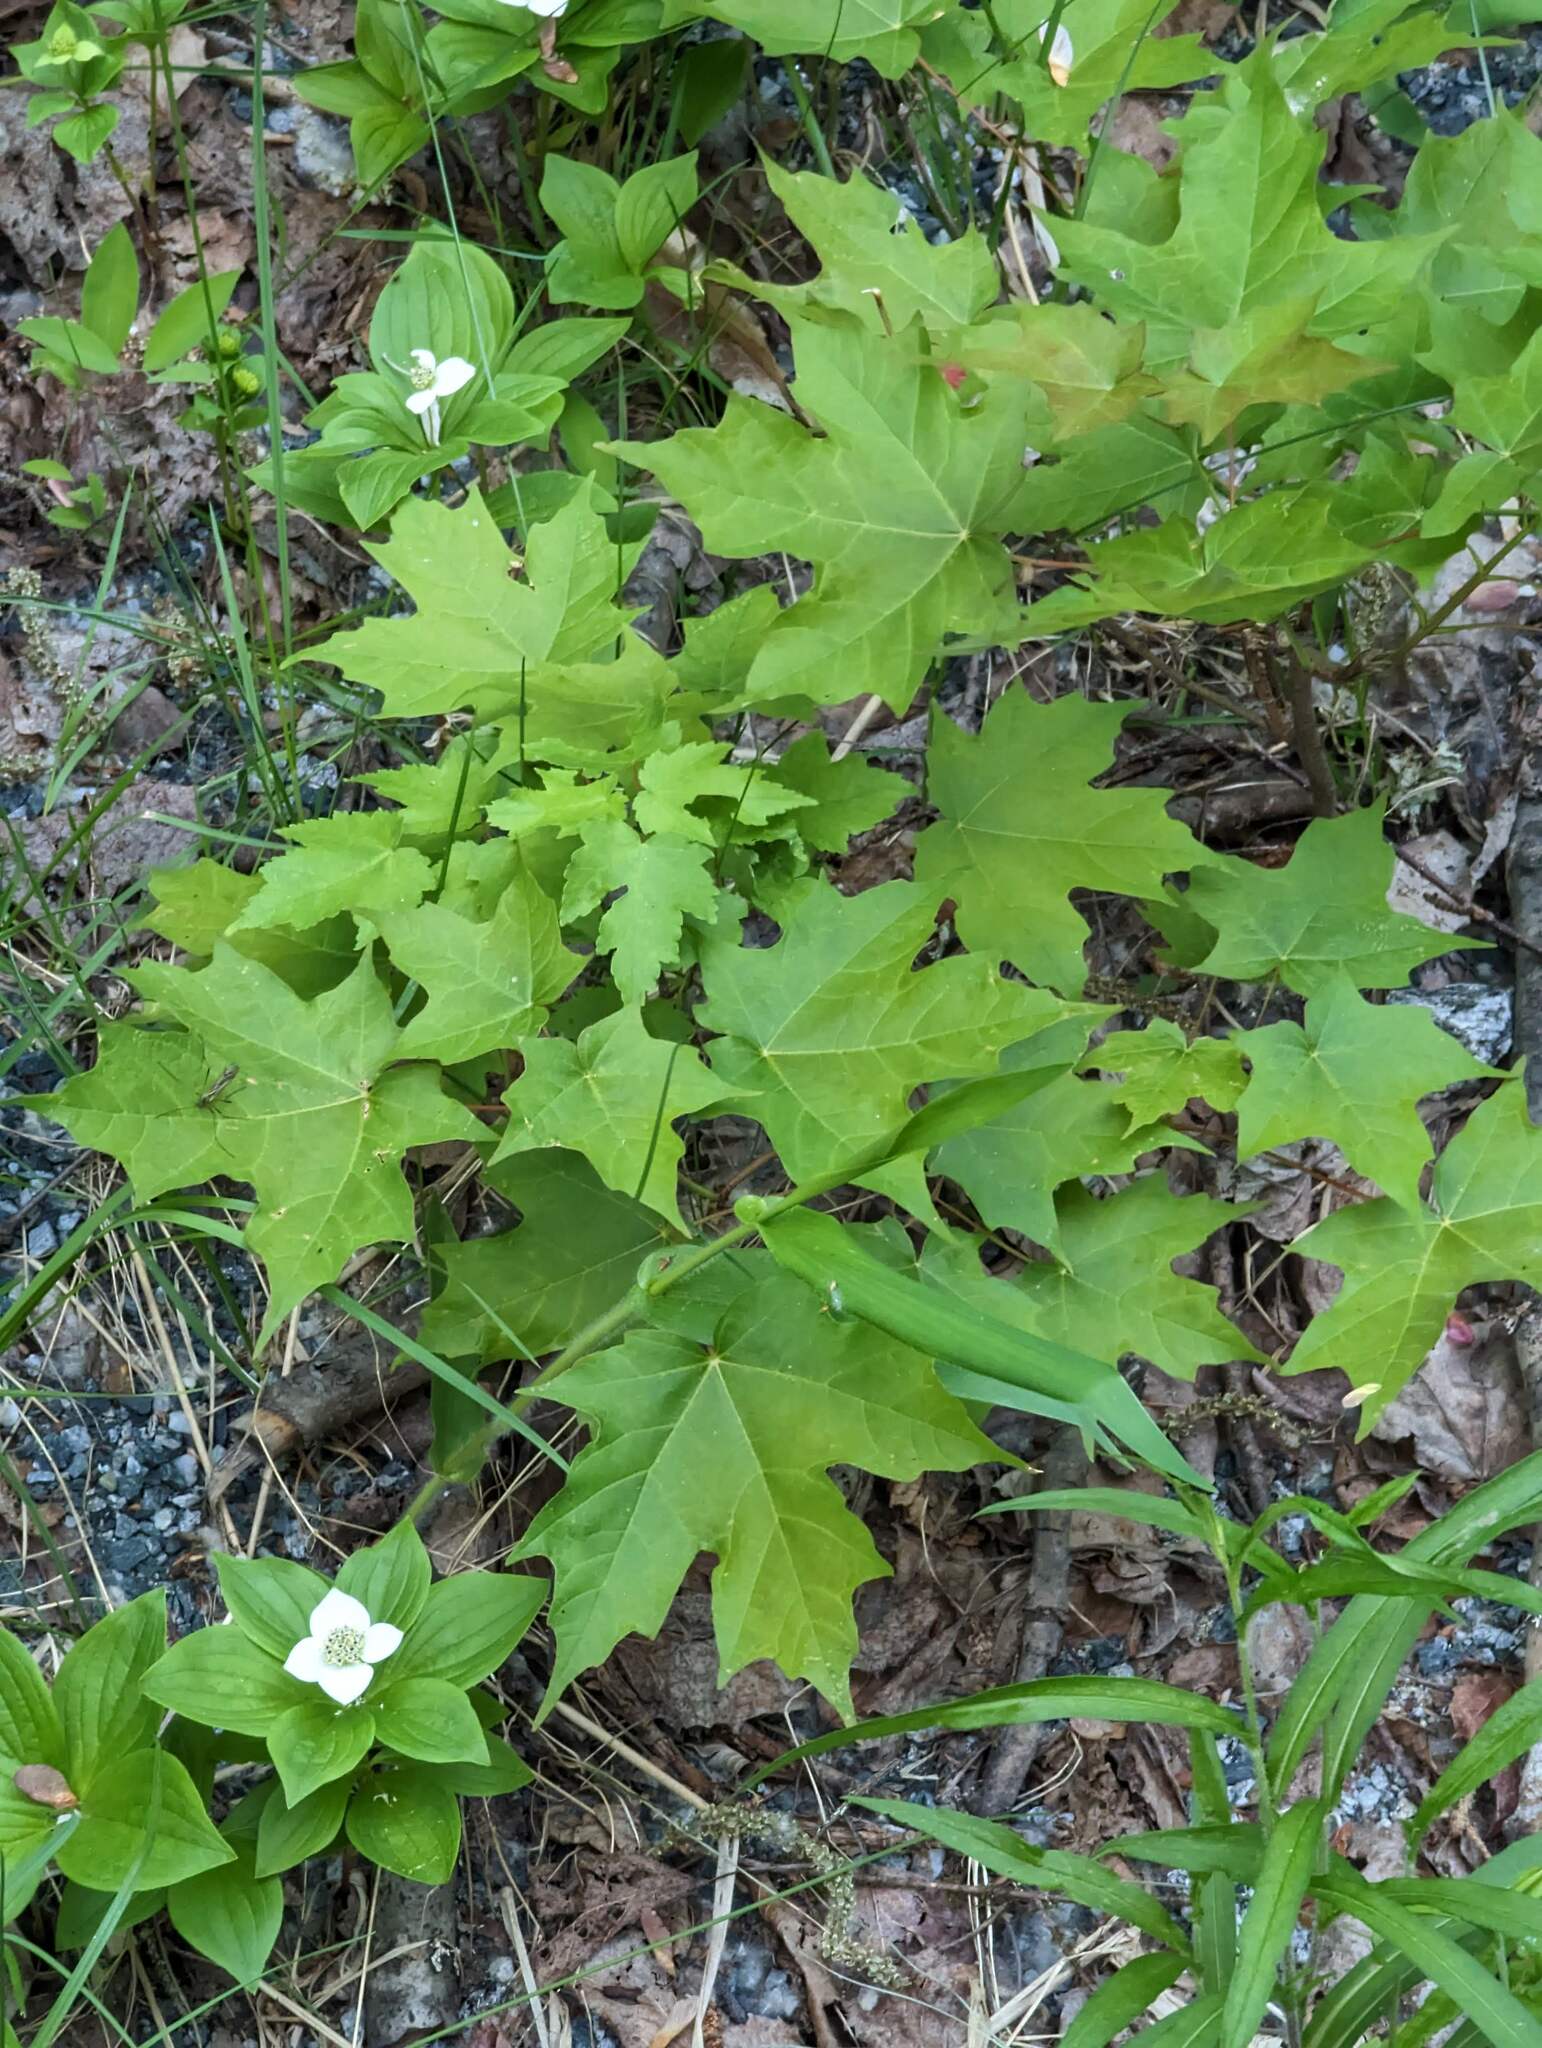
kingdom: Plantae
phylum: Tracheophyta
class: Magnoliopsida
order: Sapindales
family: Sapindaceae
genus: Acer
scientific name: Acer saccharum
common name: Sugar maple
